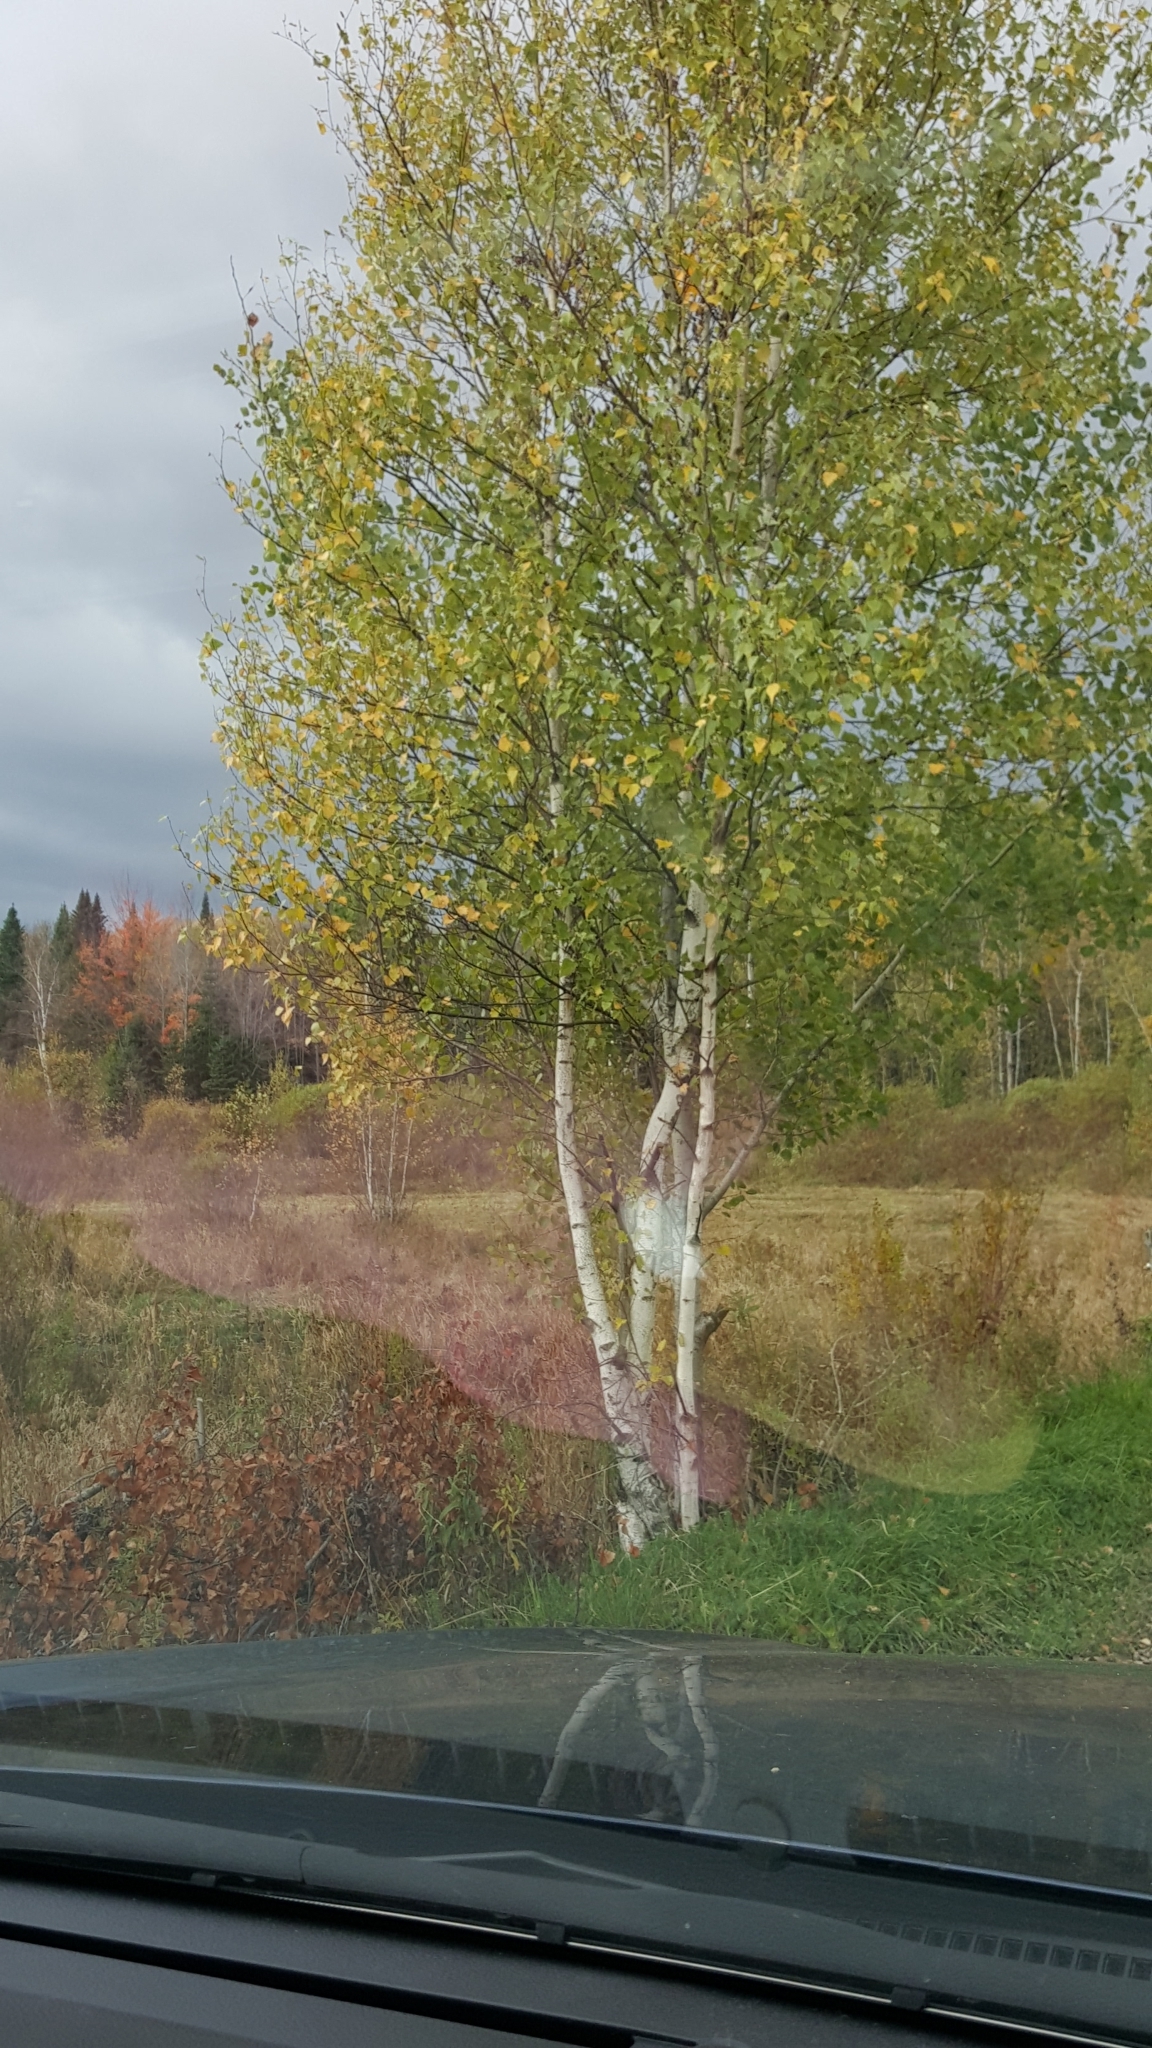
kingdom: Plantae
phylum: Tracheophyta
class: Magnoliopsida
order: Fagales
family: Betulaceae
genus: Betula
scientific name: Betula populifolia
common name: Fire birch
